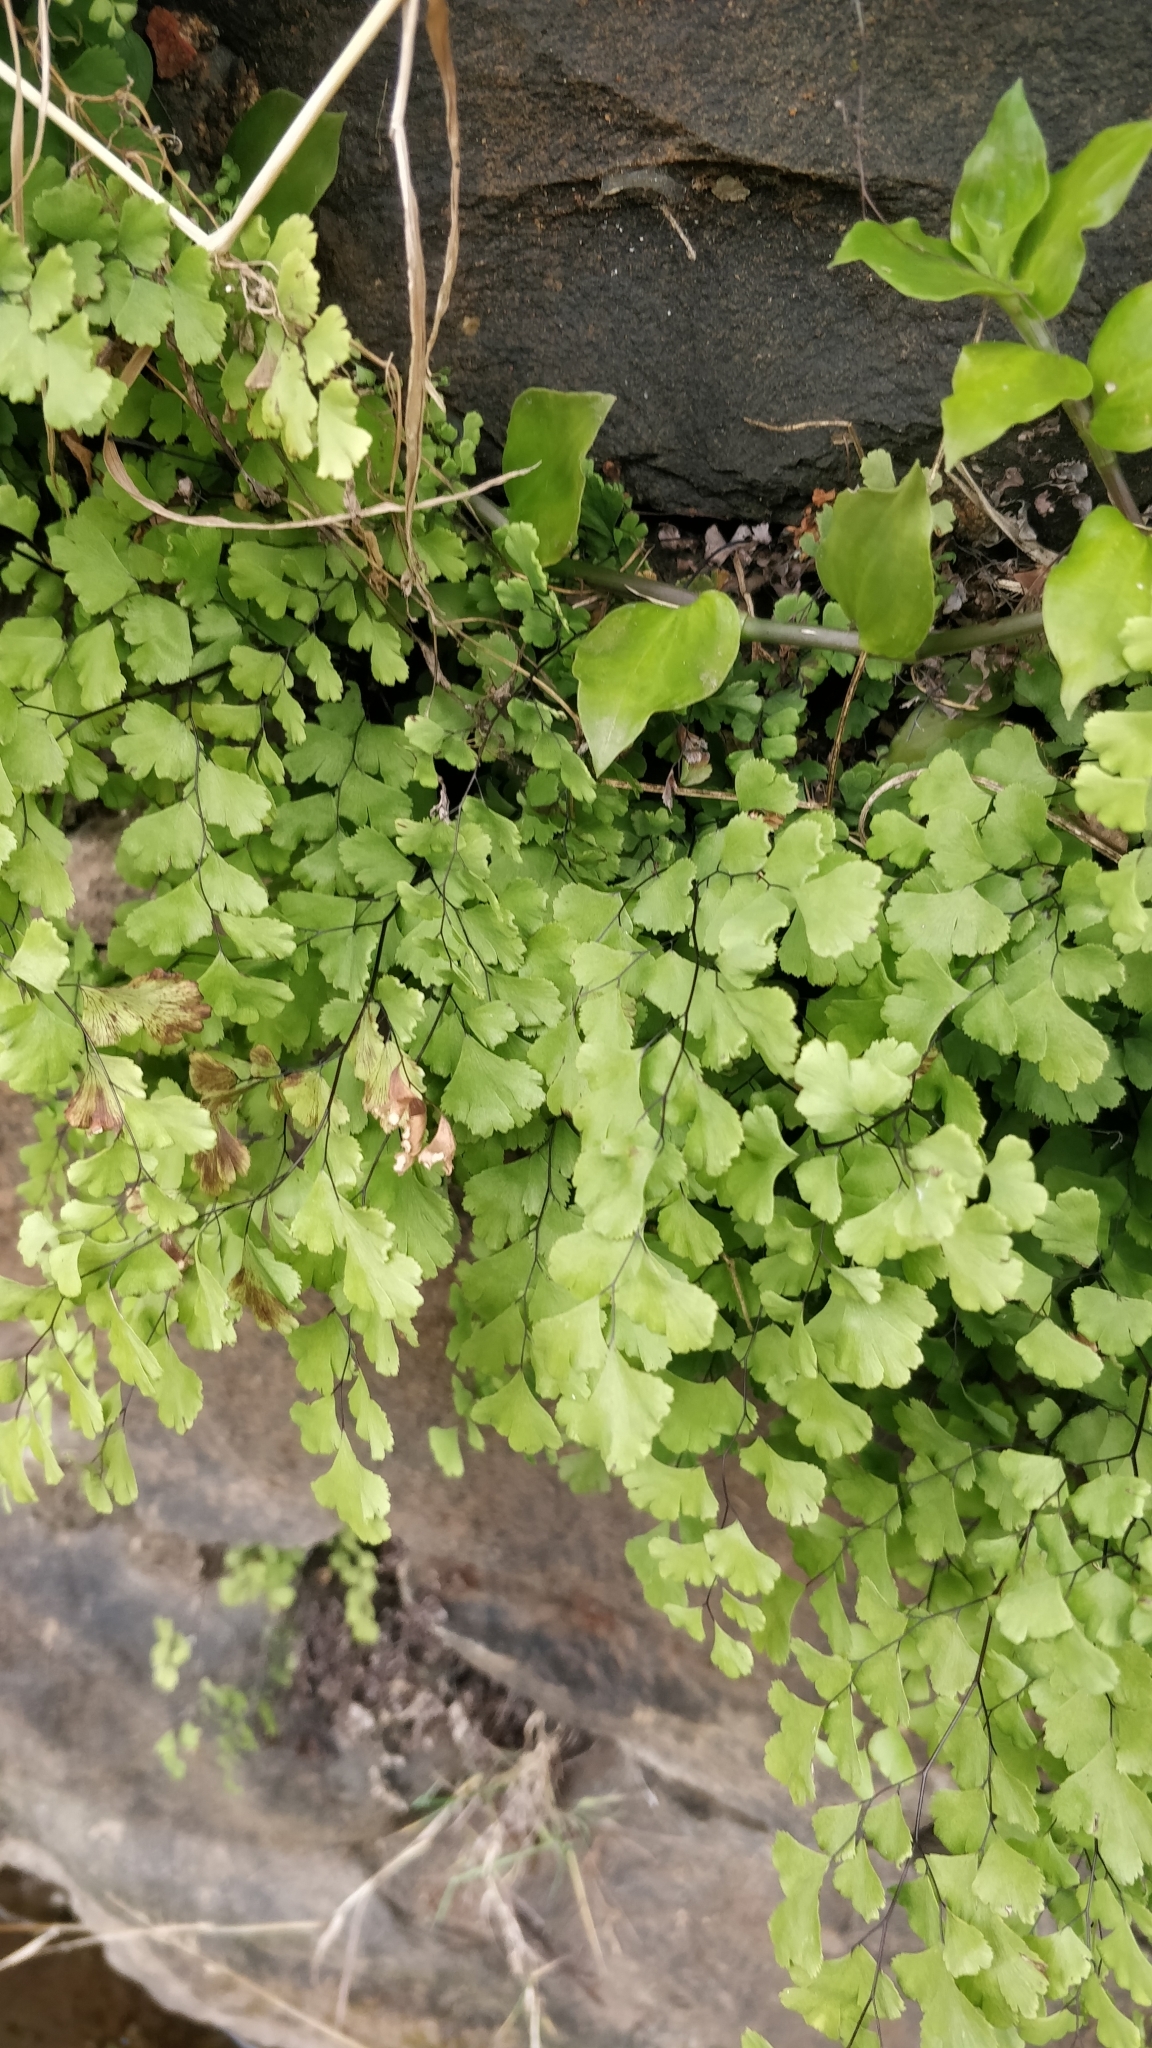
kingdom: Plantae
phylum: Tracheophyta
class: Polypodiopsida
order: Polypodiales
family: Pteridaceae
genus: Adiantum
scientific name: Adiantum raddianum
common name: Delta maidenhair fern
